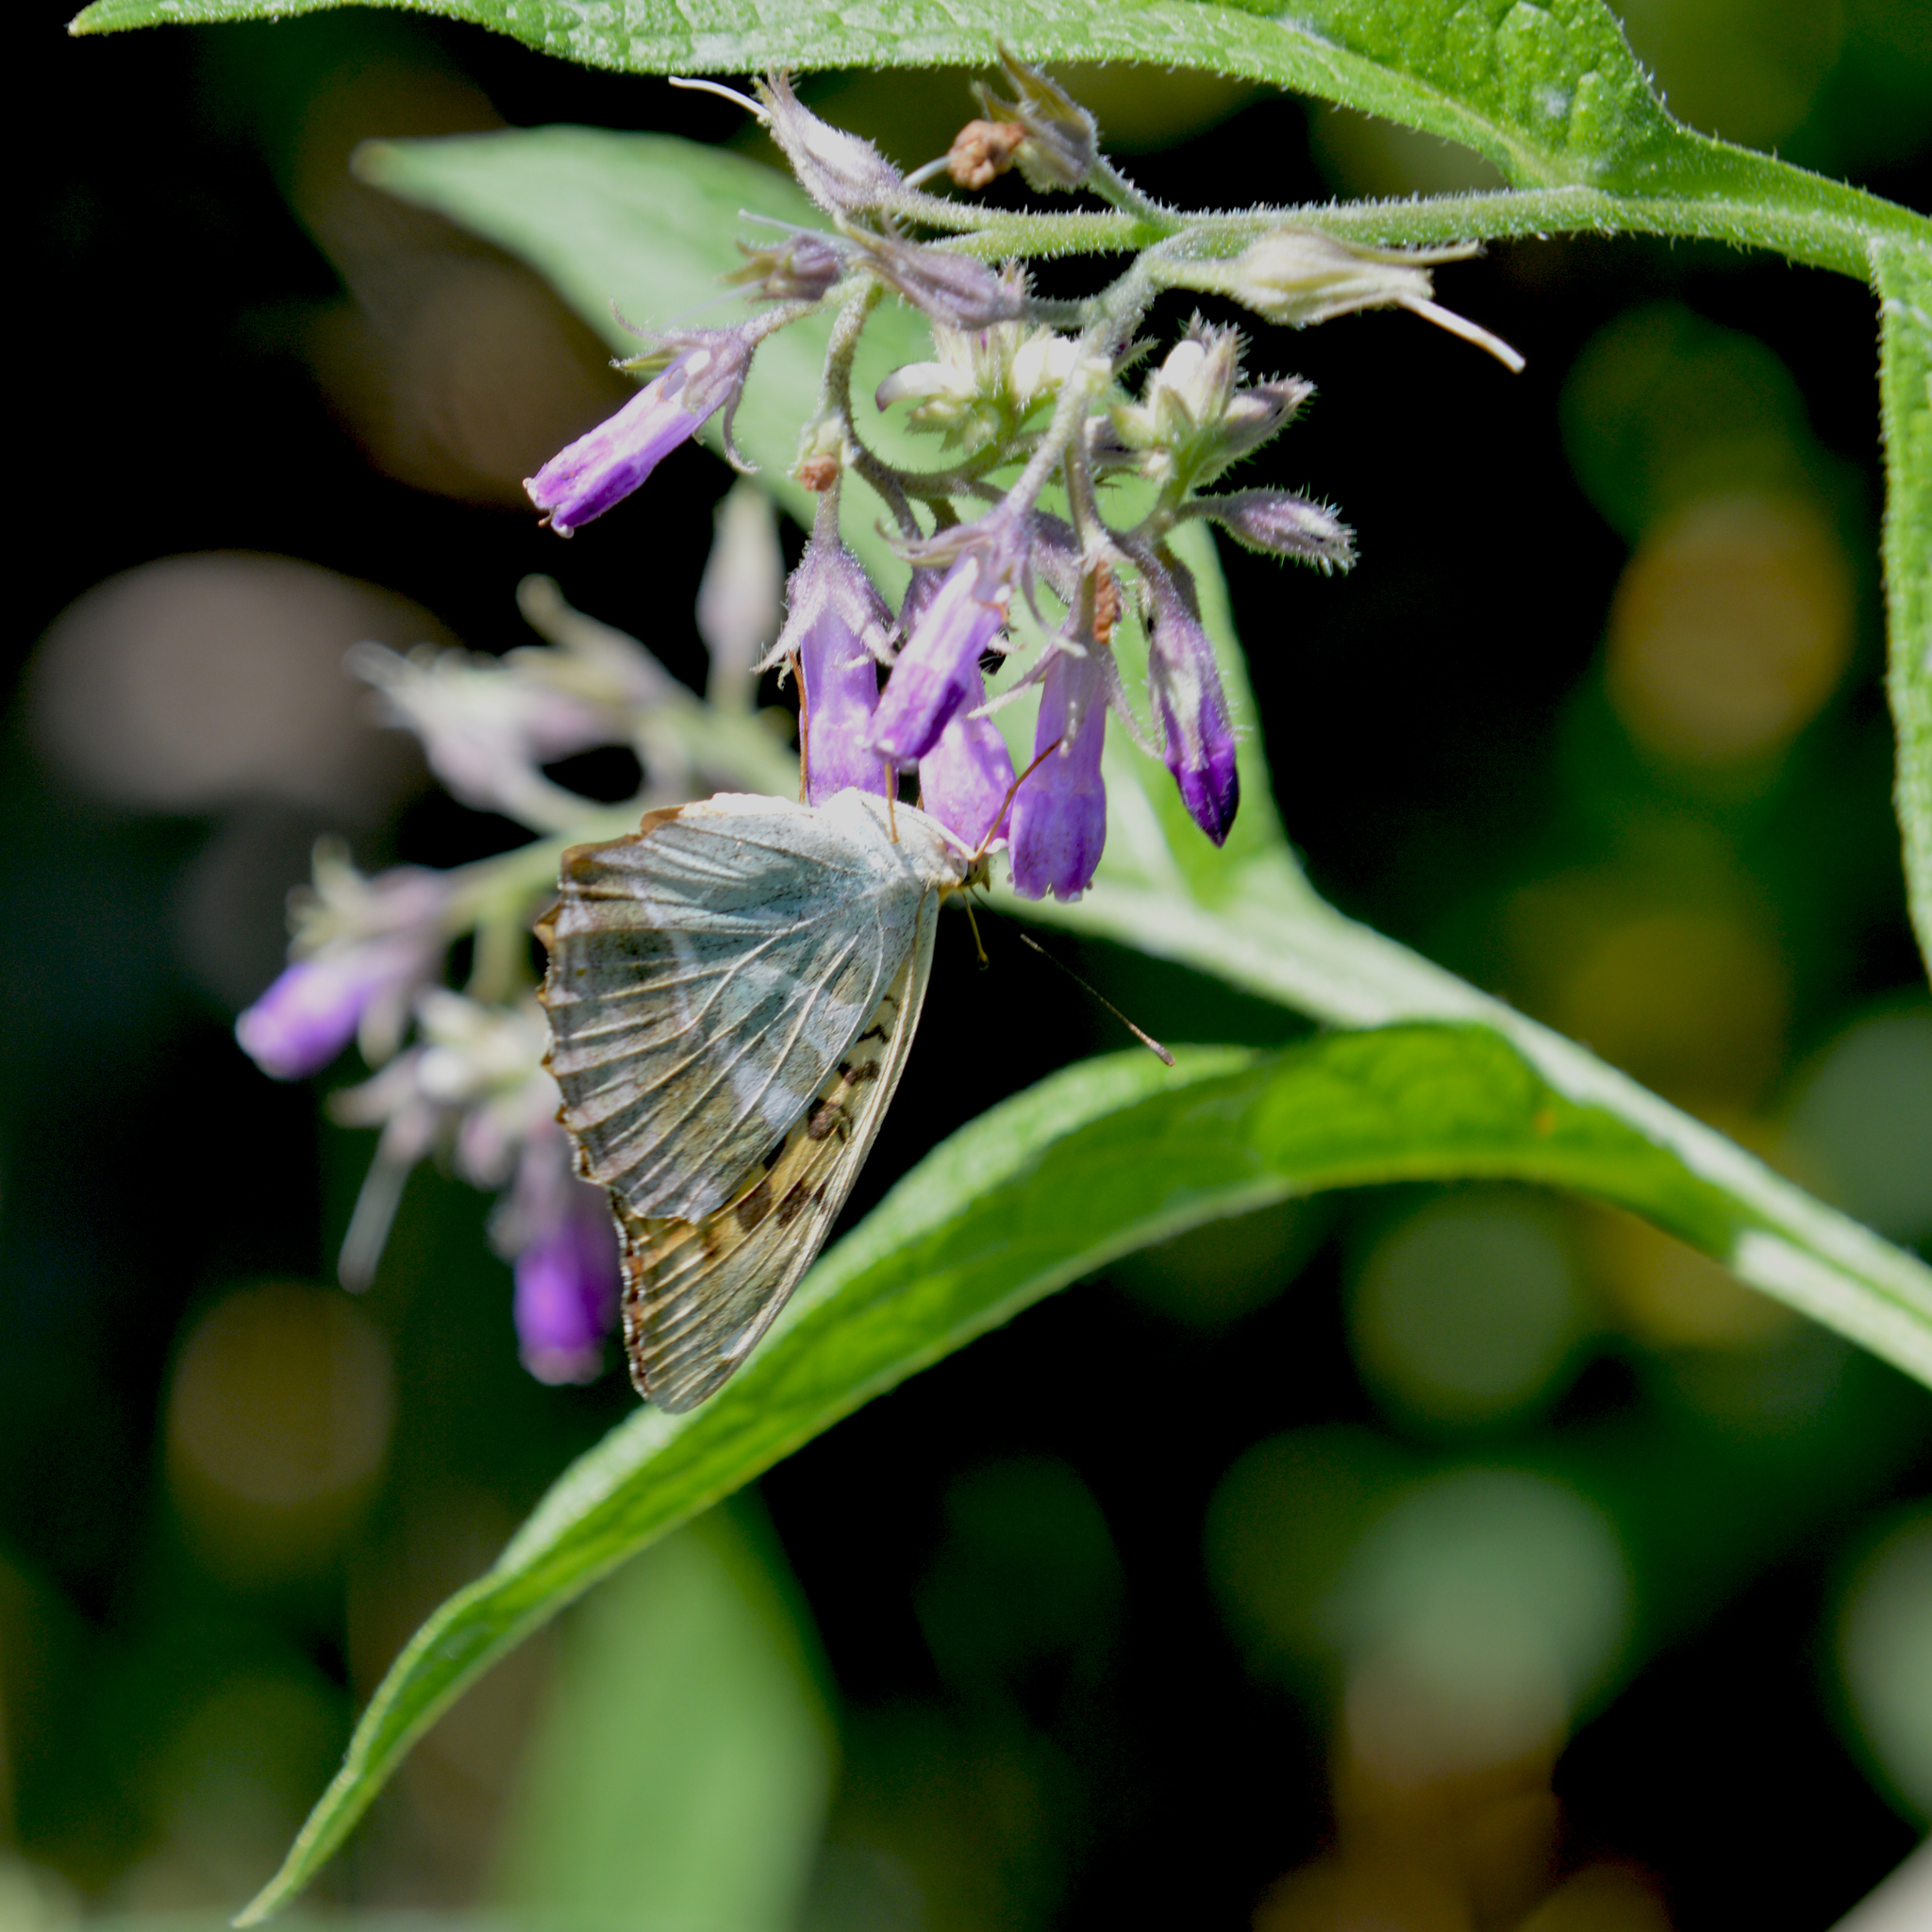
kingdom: Animalia
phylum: Arthropoda
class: Insecta
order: Lepidoptera
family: Nymphalidae
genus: Argynnis
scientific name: Argynnis paphia
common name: Silver-washed fritillary
